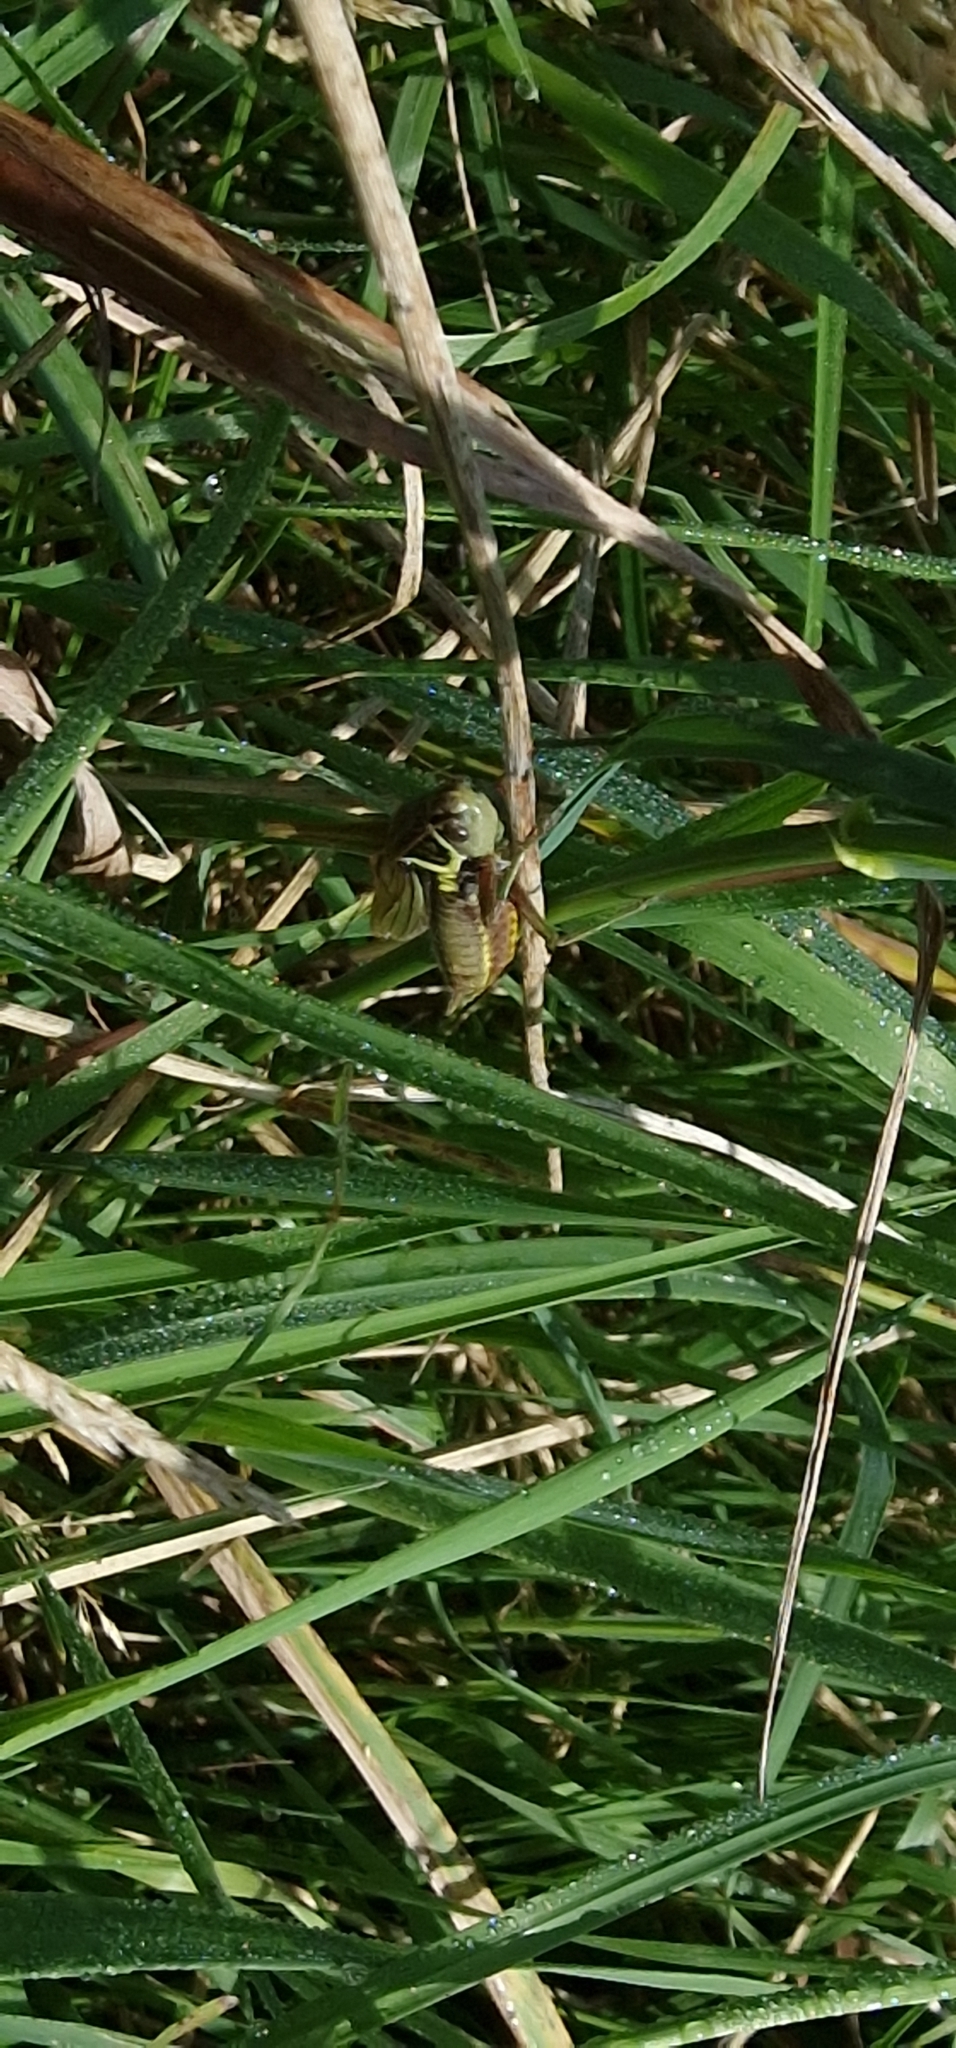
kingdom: Animalia
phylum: Arthropoda
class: Insecta
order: Orthoptera
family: Tettigoniidae
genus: Roeseliana
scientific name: Roeseliana roeselii
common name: Roesel's bush cricket
